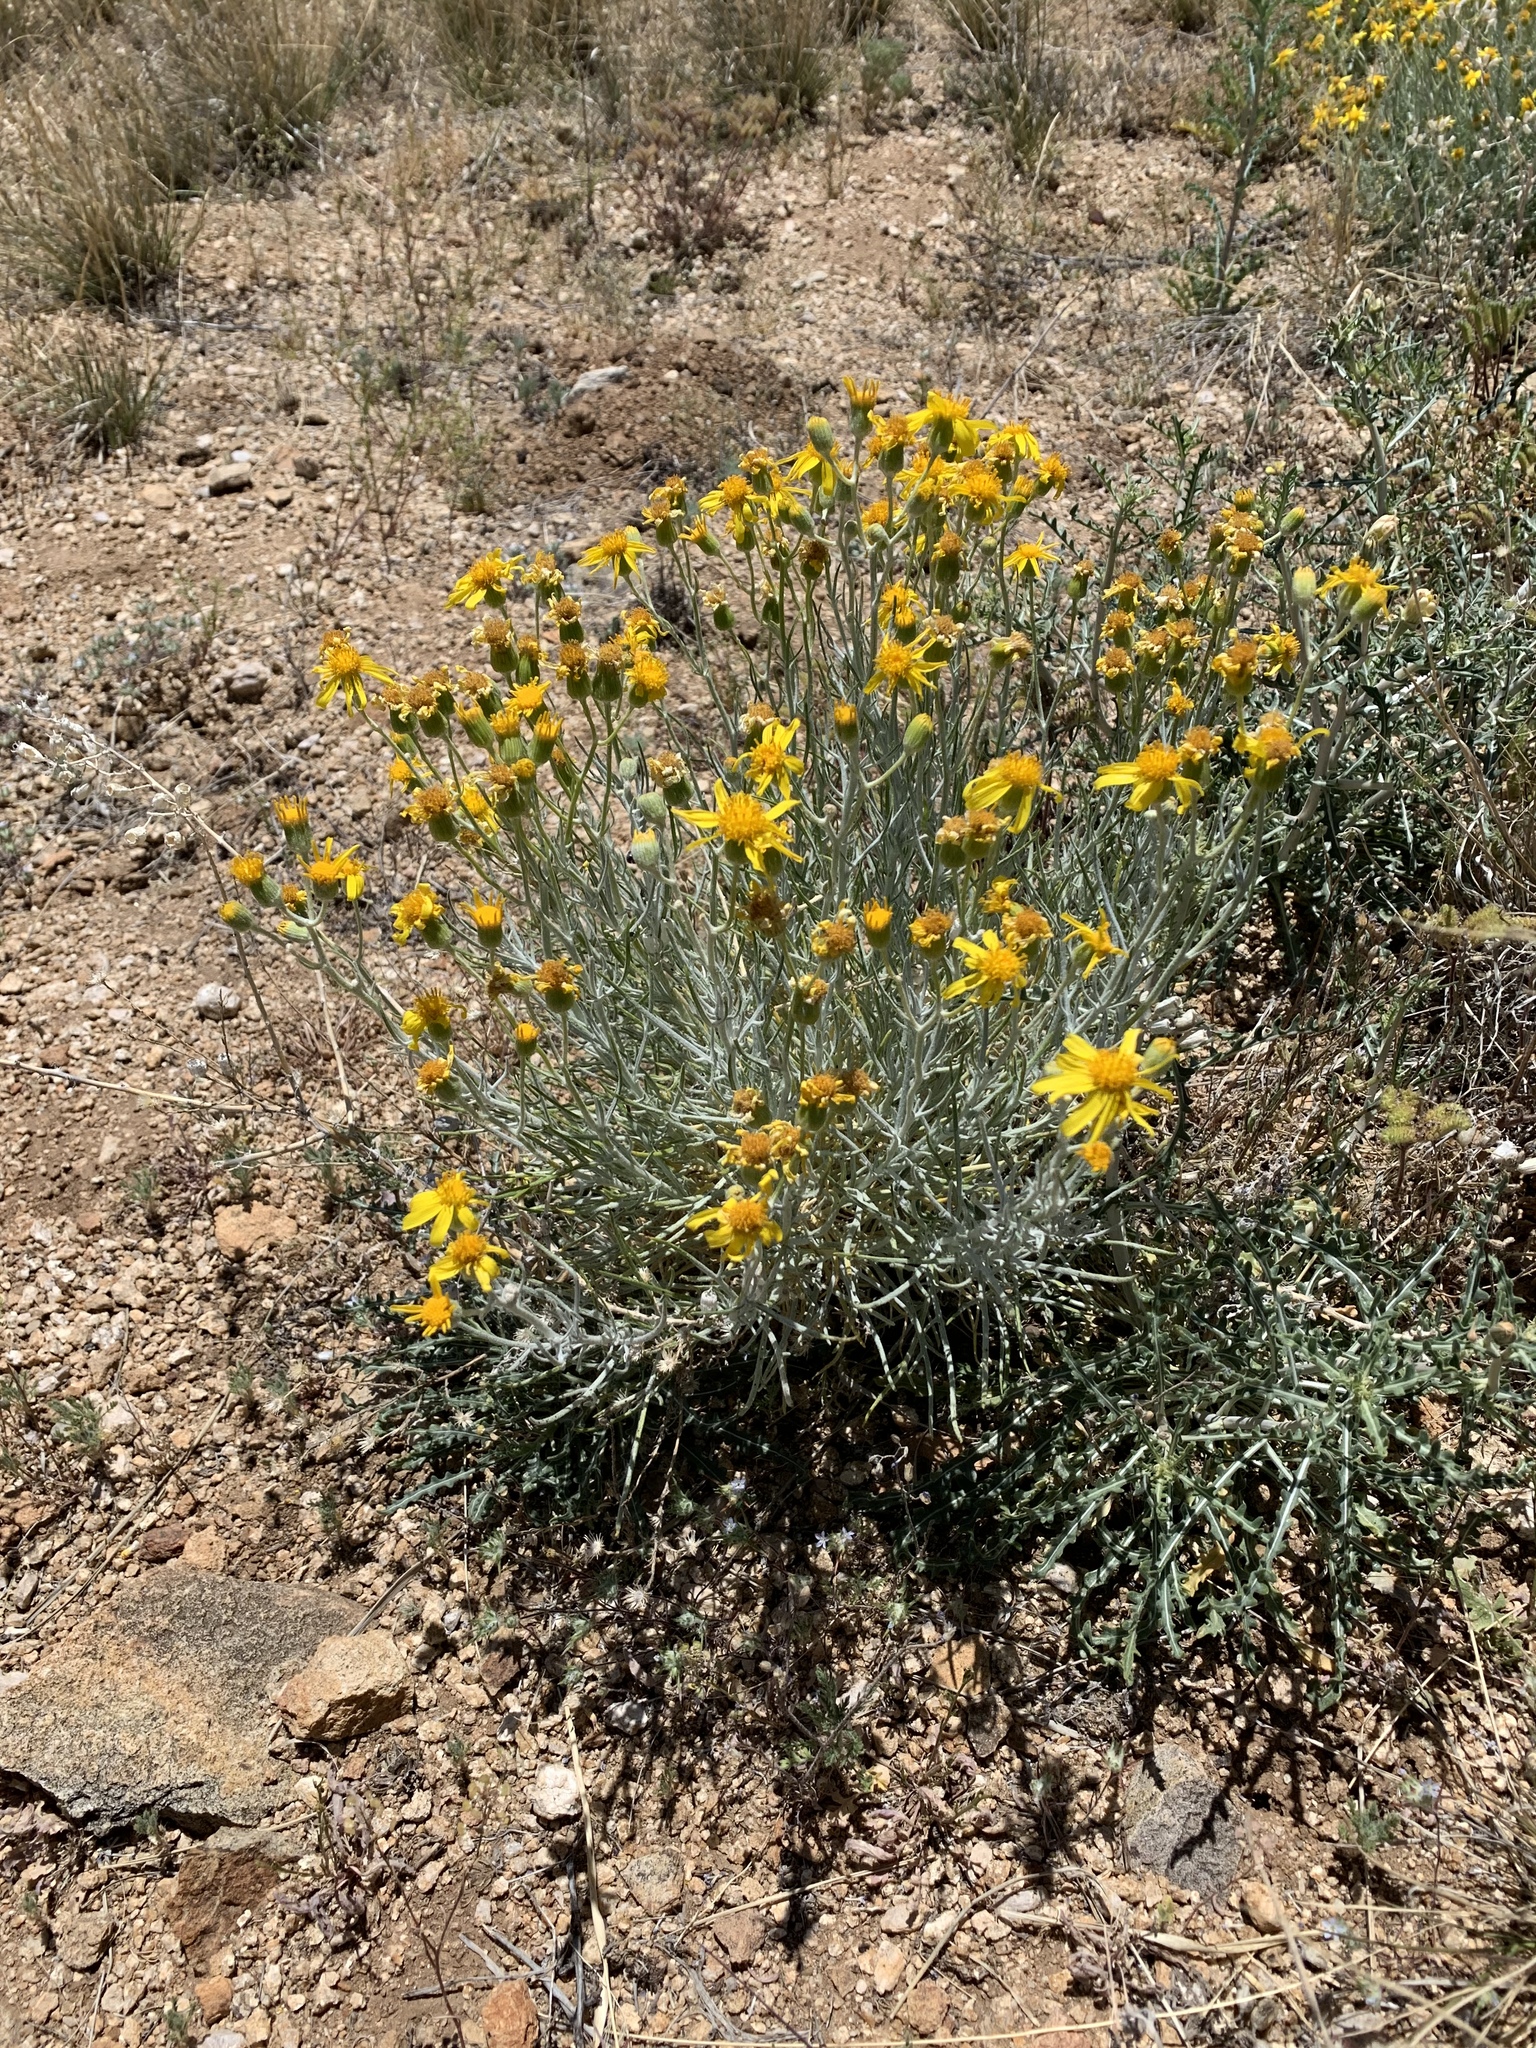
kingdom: Plantae
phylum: Tracheophyta
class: Magnoliopsida
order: Asterales
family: Asteraceae
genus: Senecio
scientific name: Senecio flaccidus
